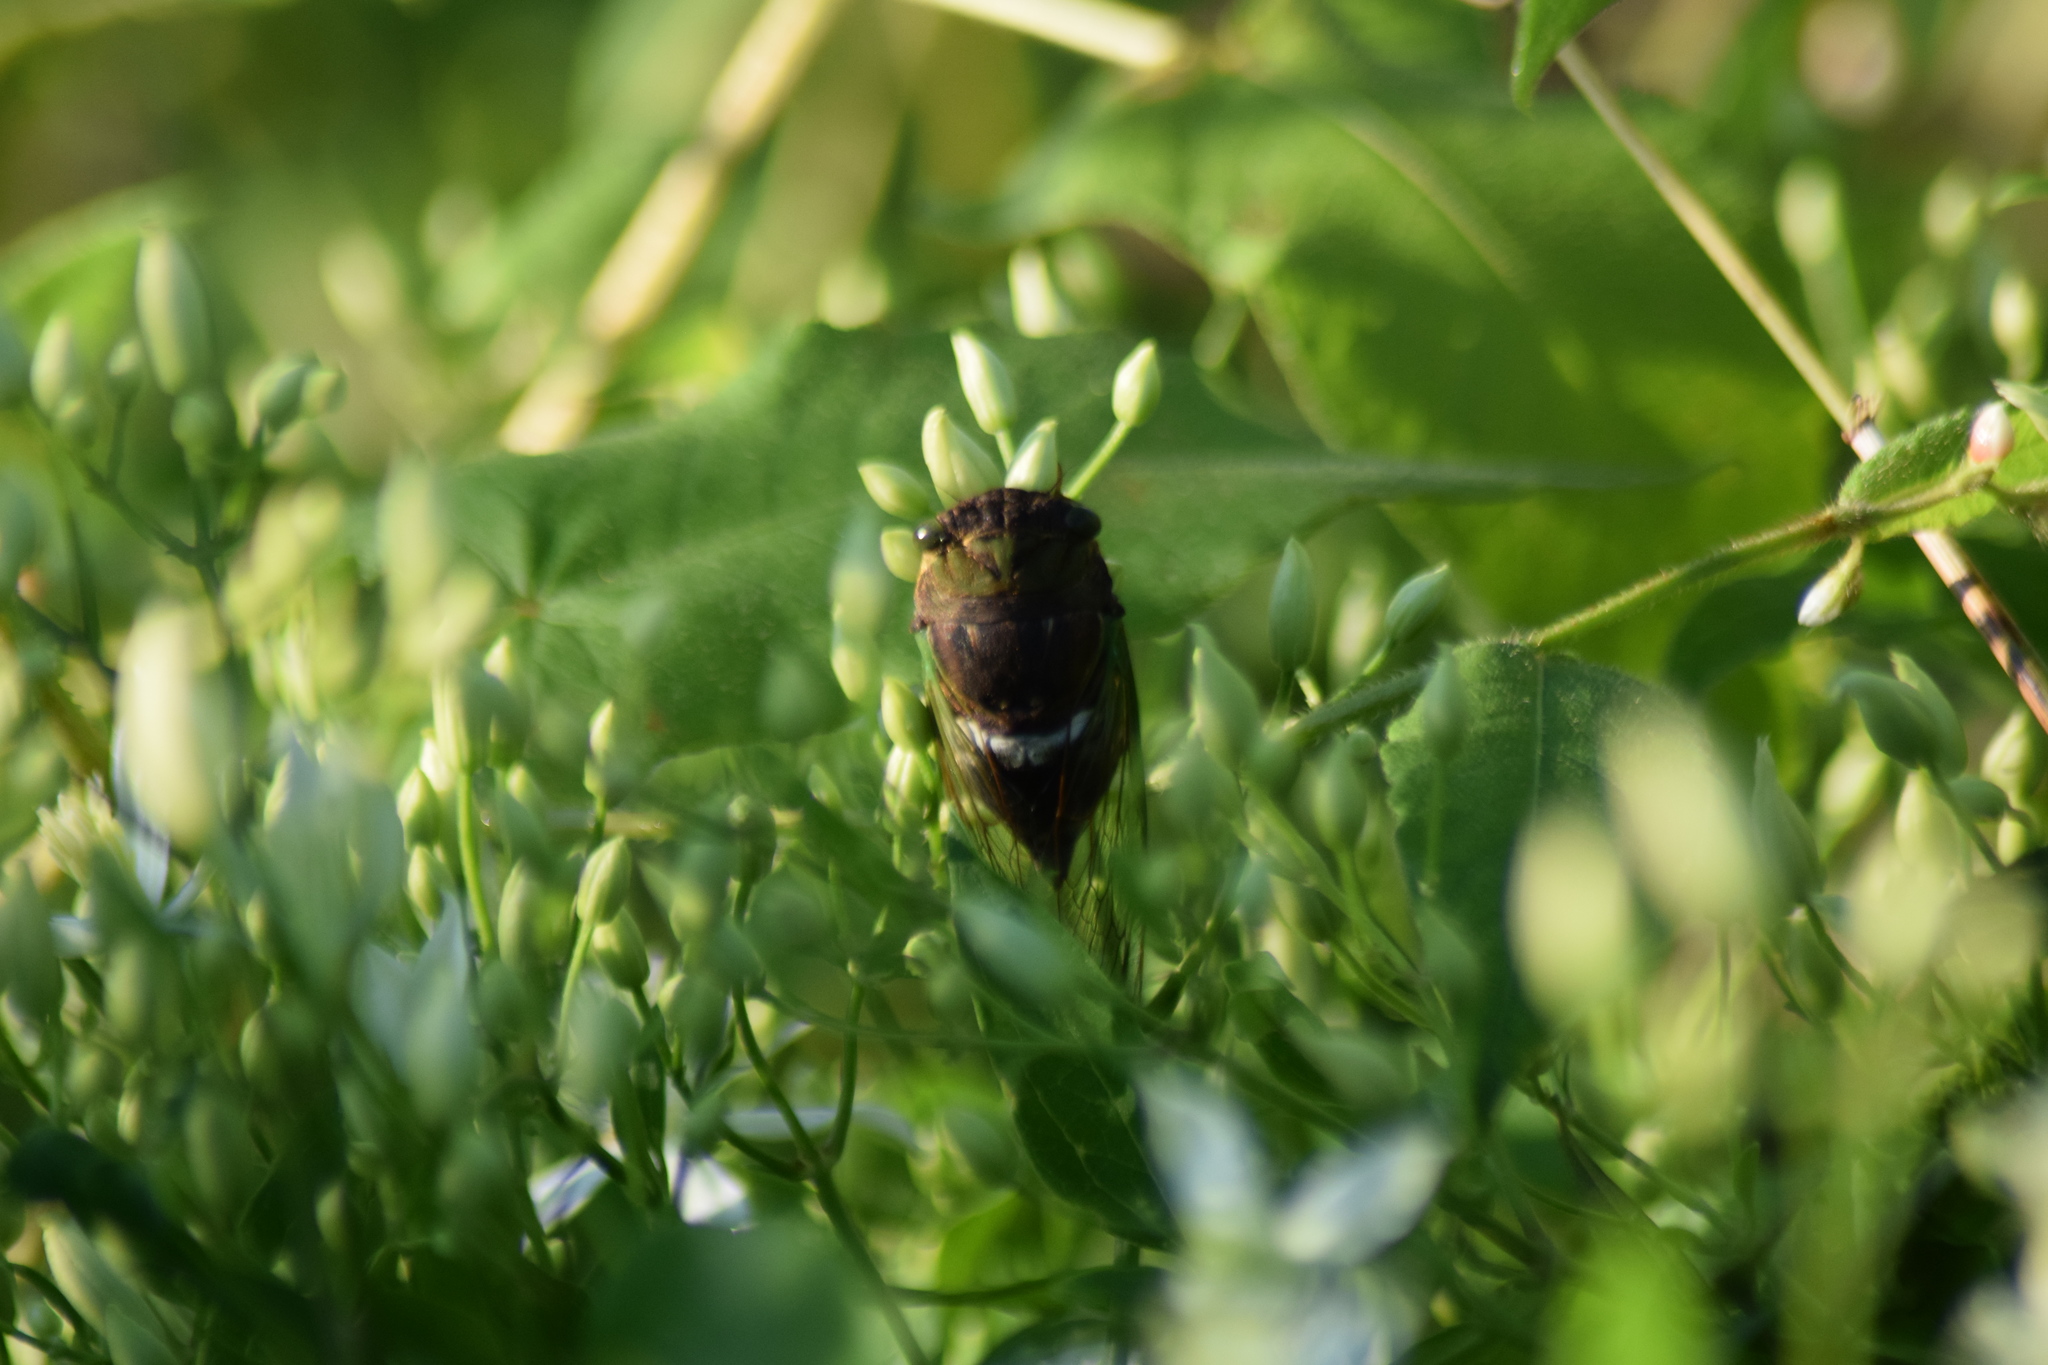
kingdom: Animalia
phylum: Arthropoda
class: Insecta
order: Hemiptera
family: Cicadidae
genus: Neotibicen
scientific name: Neotibicen tibicen
